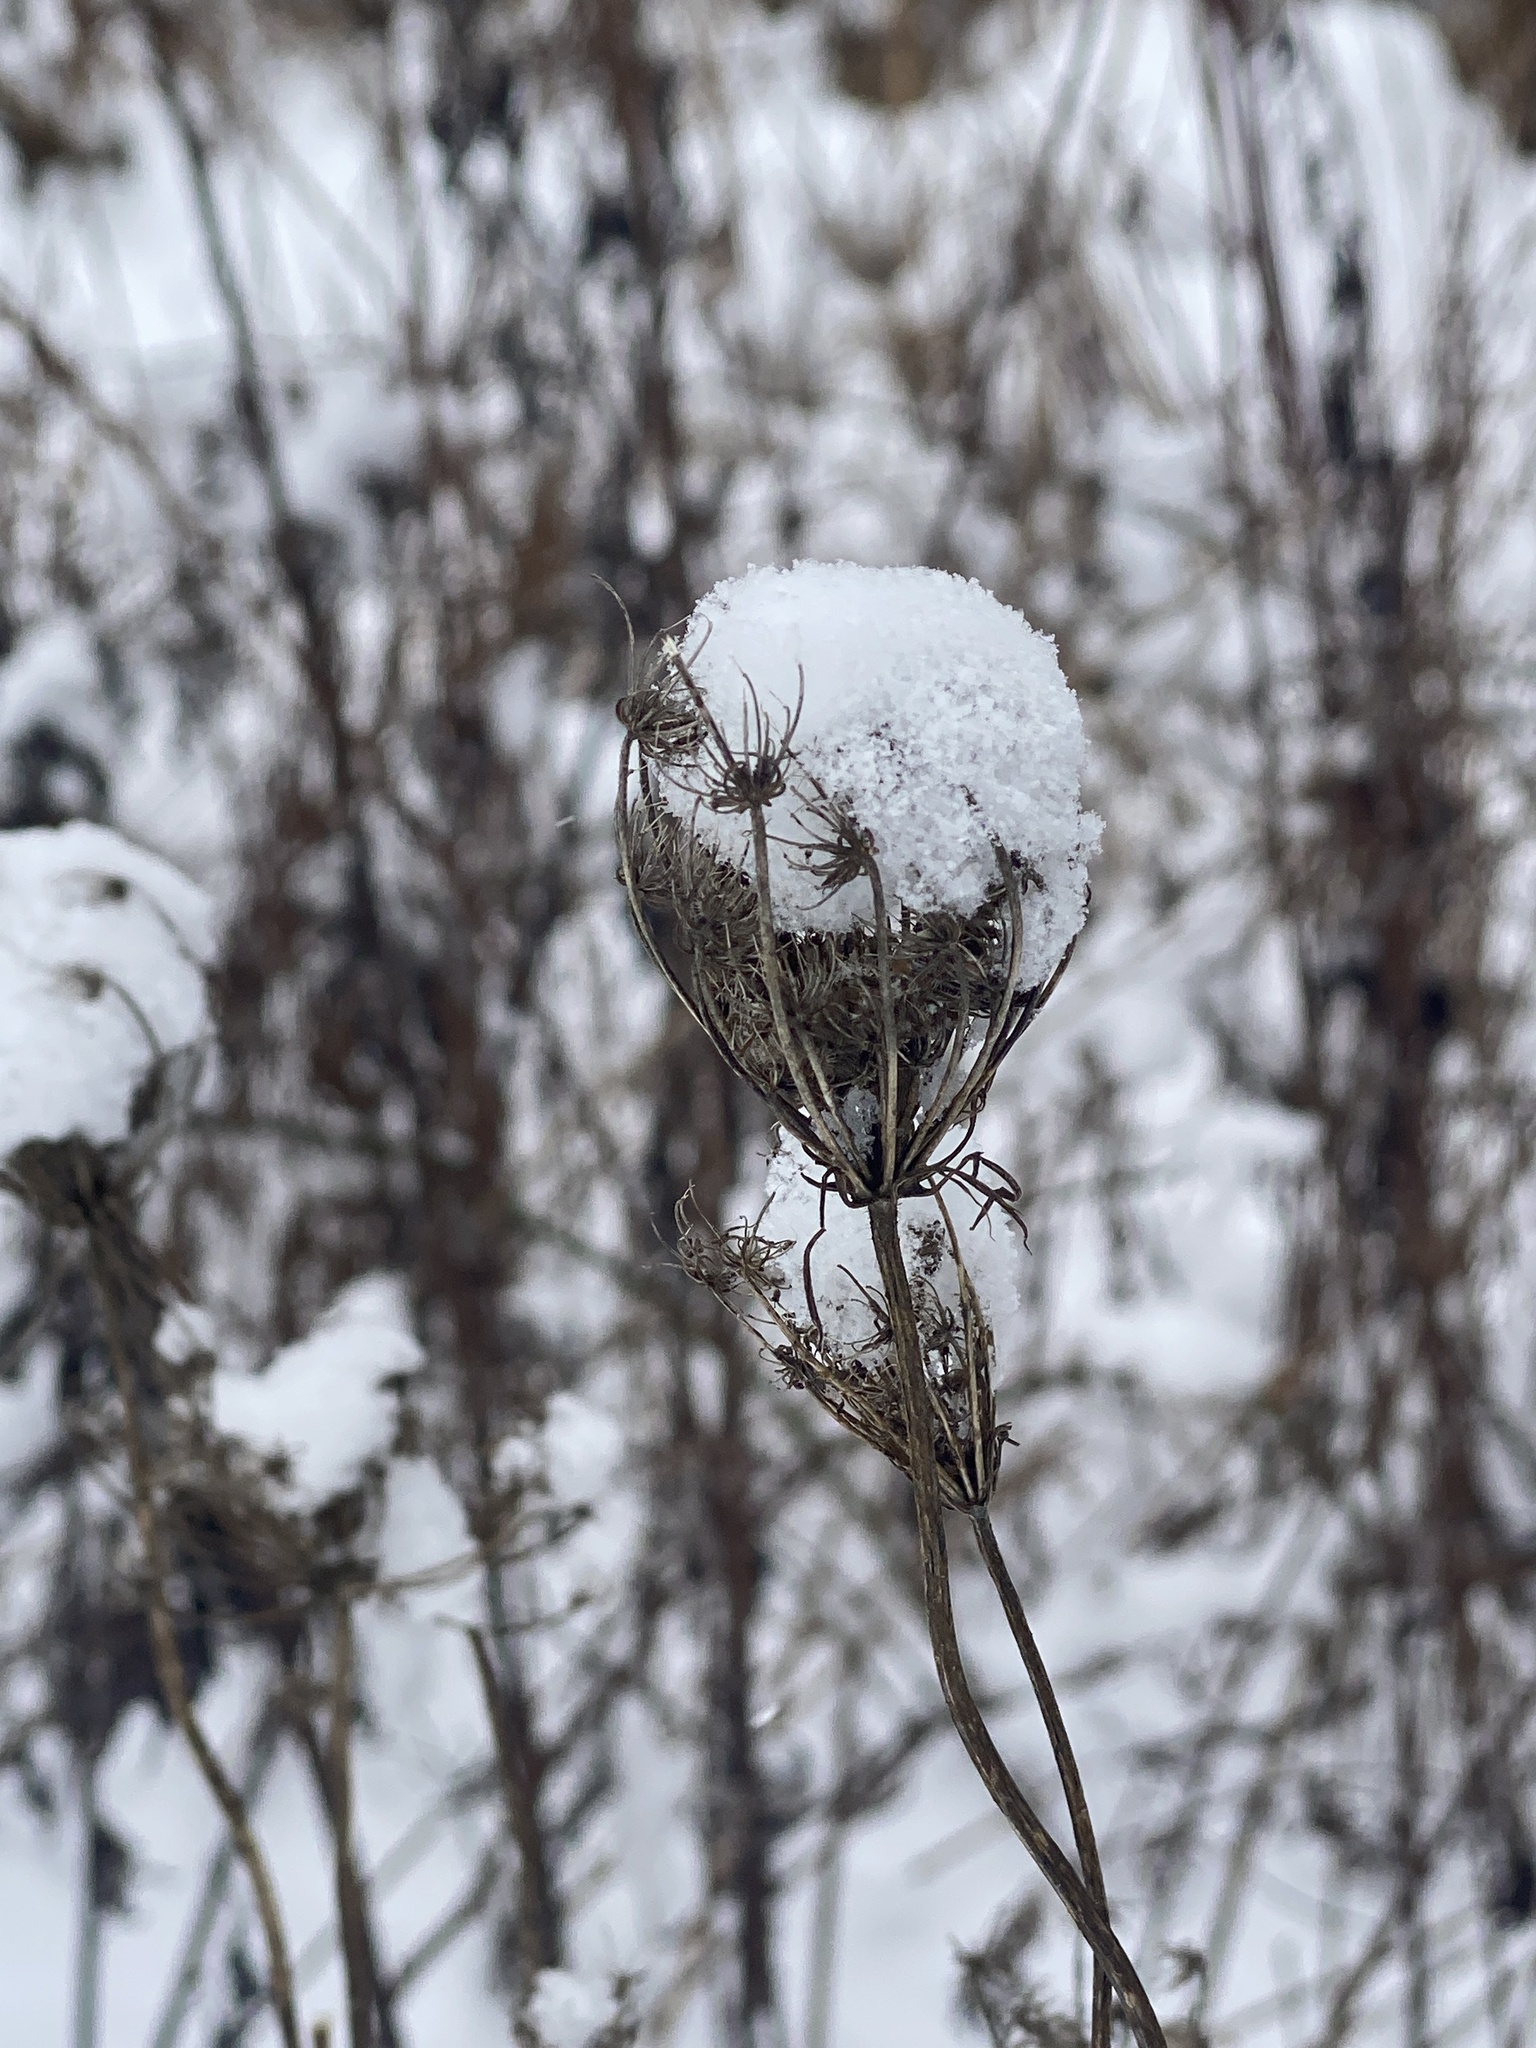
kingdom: Plantae
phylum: Tracheophyta
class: Magnoliopsida
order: Apiales
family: Apiaceae
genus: Daucus
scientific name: Daucus carota
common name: Wild carrot
